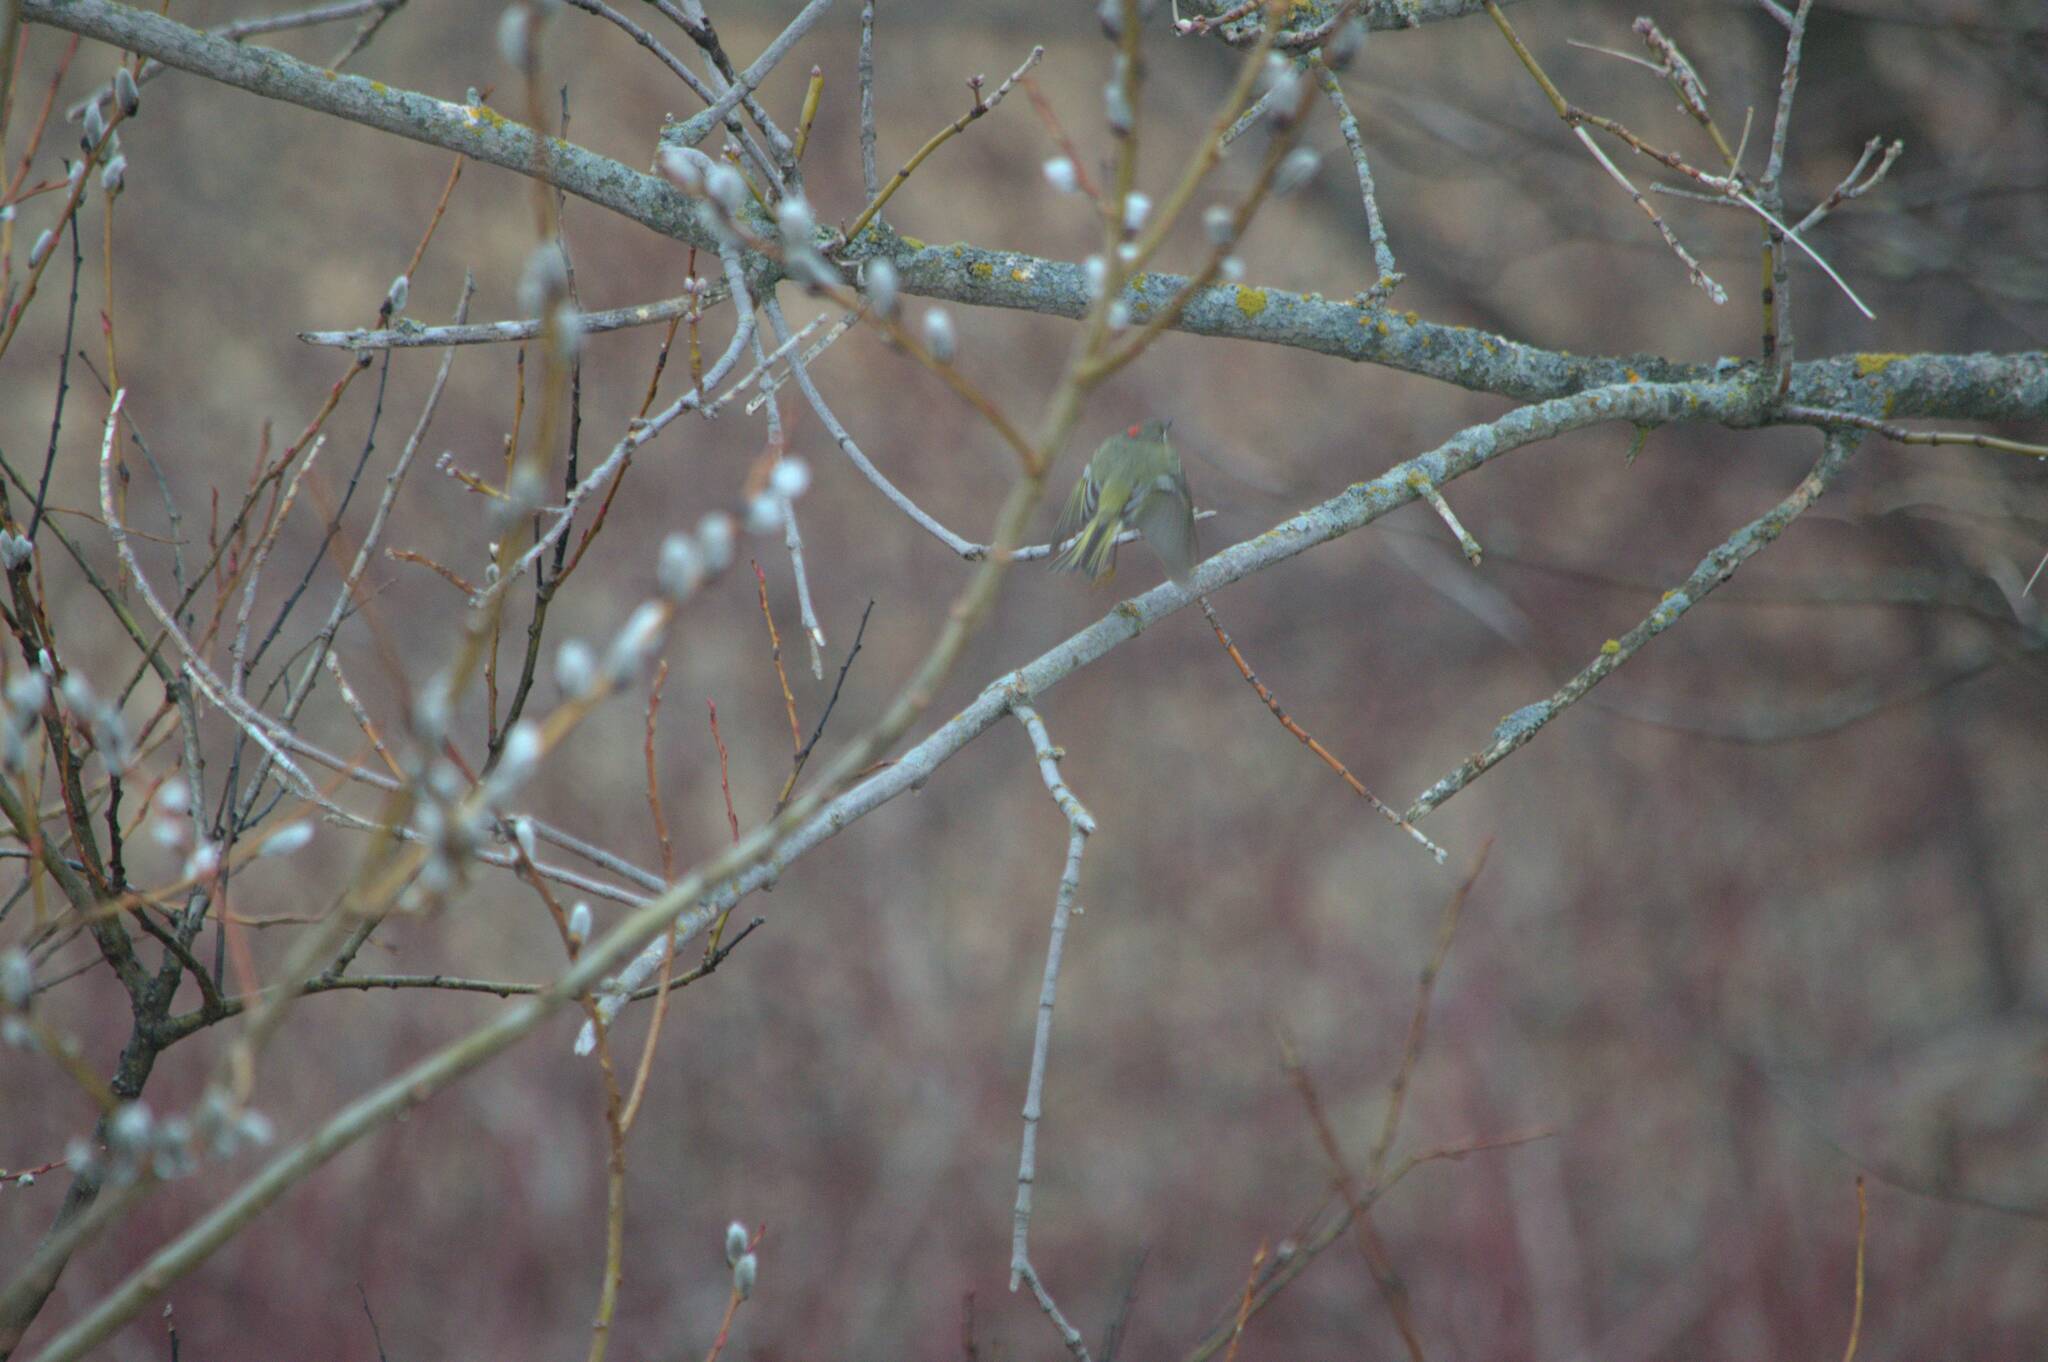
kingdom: Animalia
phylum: Chordata
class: Aves
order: Passeriformes
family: Regulidae
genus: Regulus
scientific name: Regulus calendula
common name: Ruby-crowned kinglet
